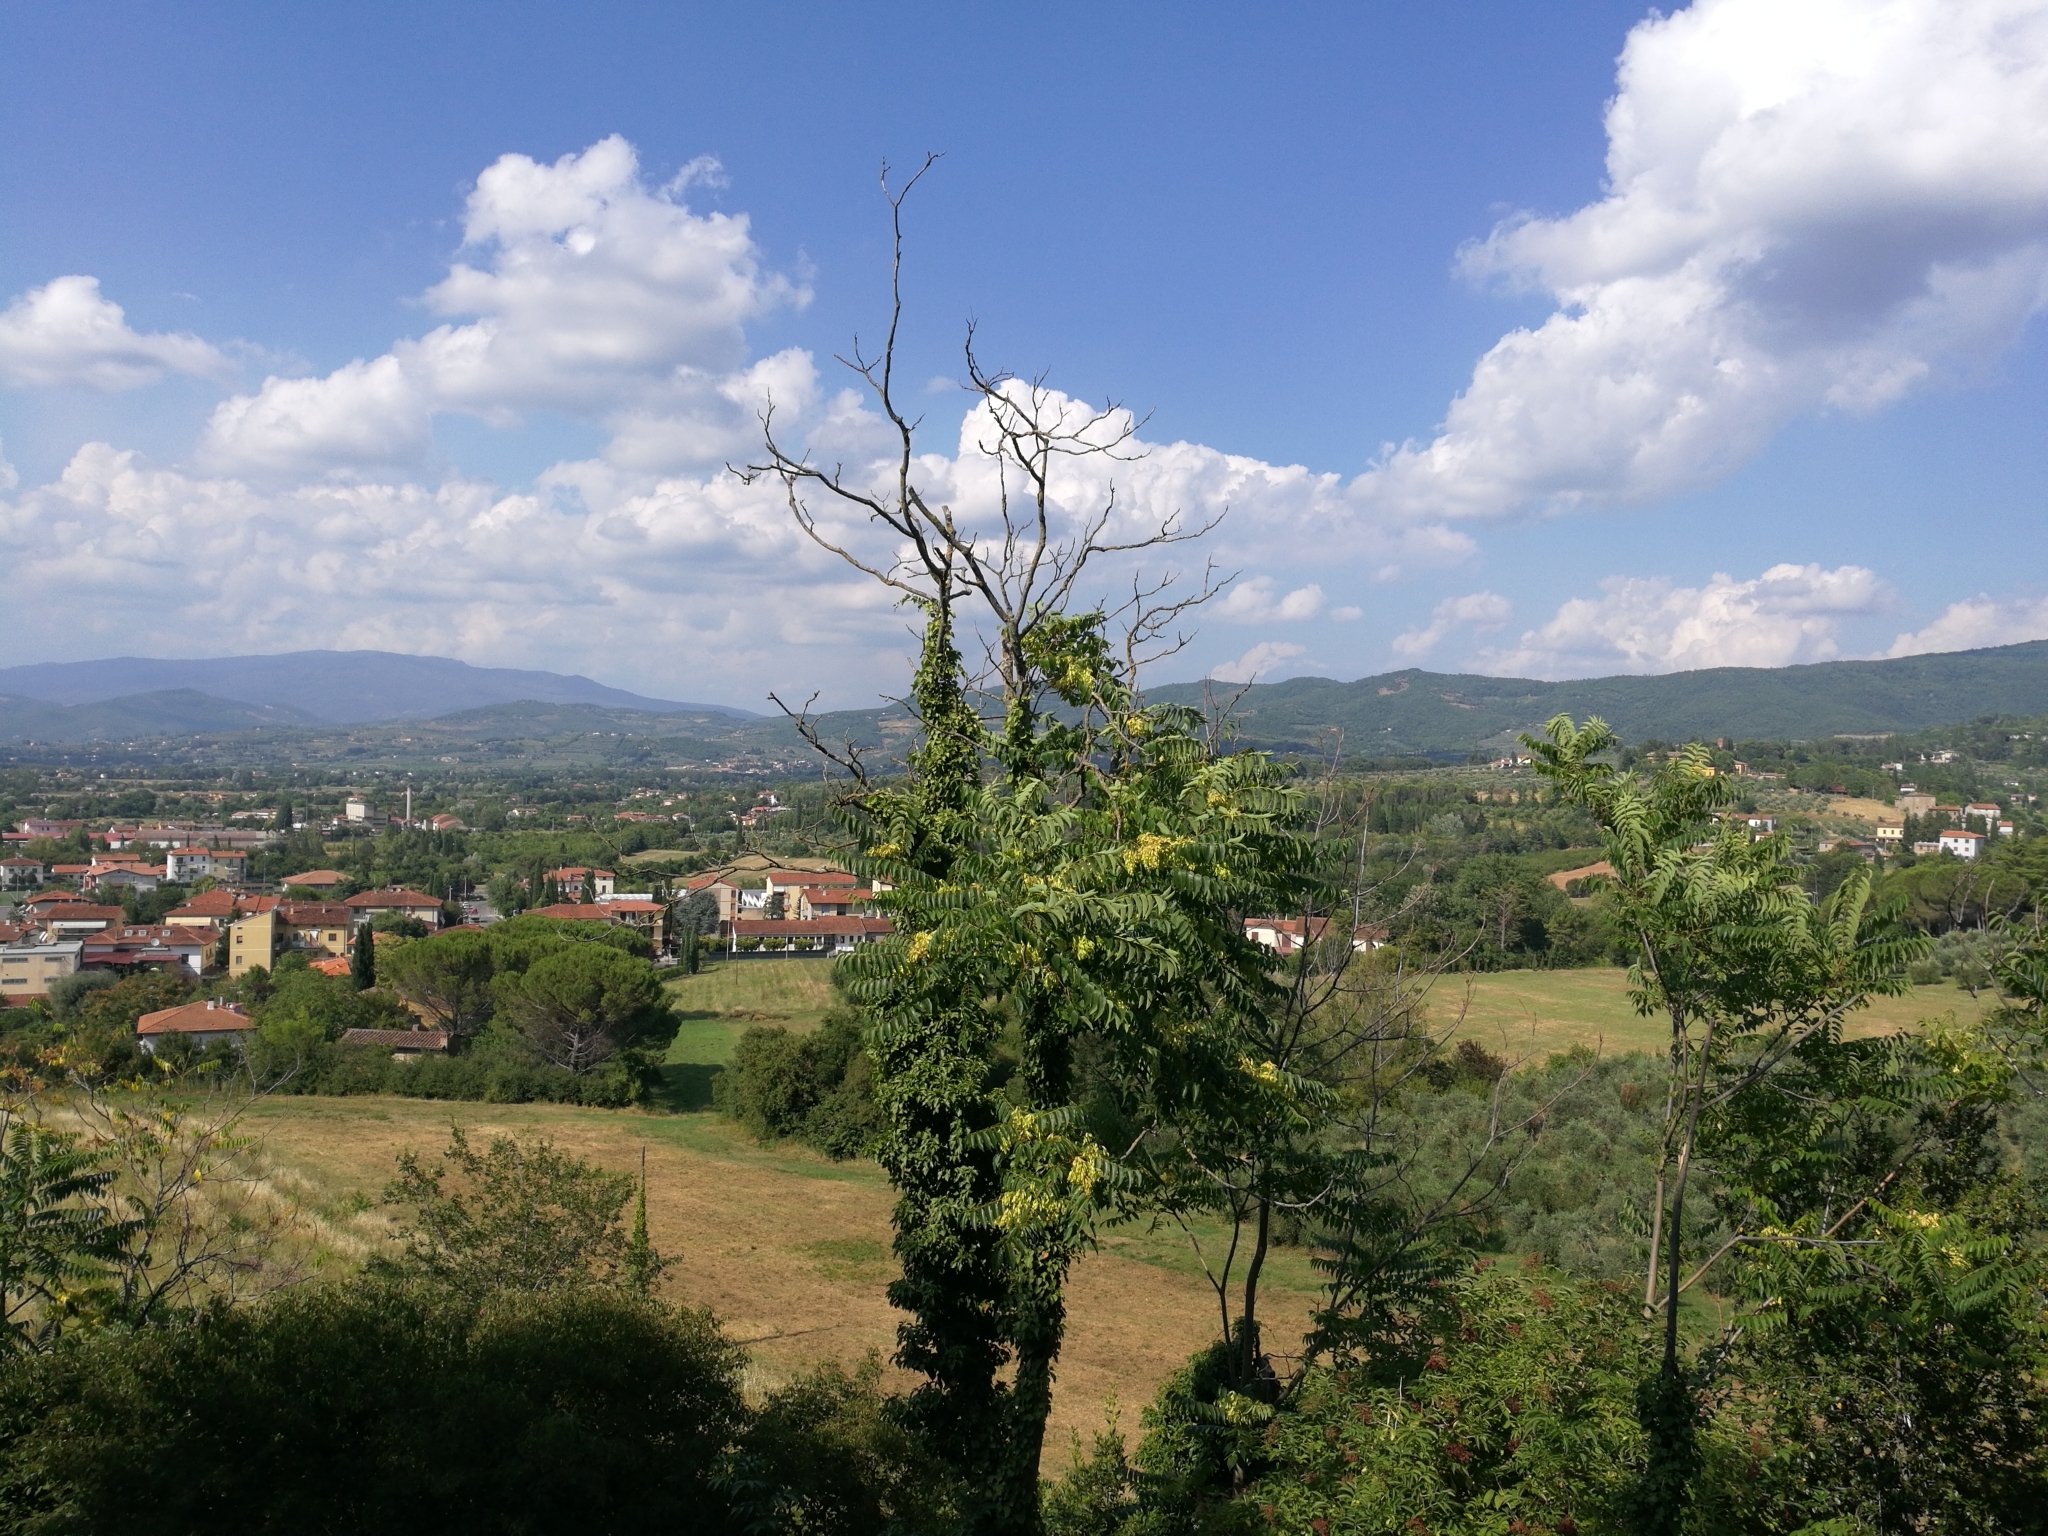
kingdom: Plantae
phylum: Tracheophyta
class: Magnoliopsida
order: Sapindales
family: Simaroubaceae
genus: Ailanthus
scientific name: Ailanthus altissima
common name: Tree-of-heaven
